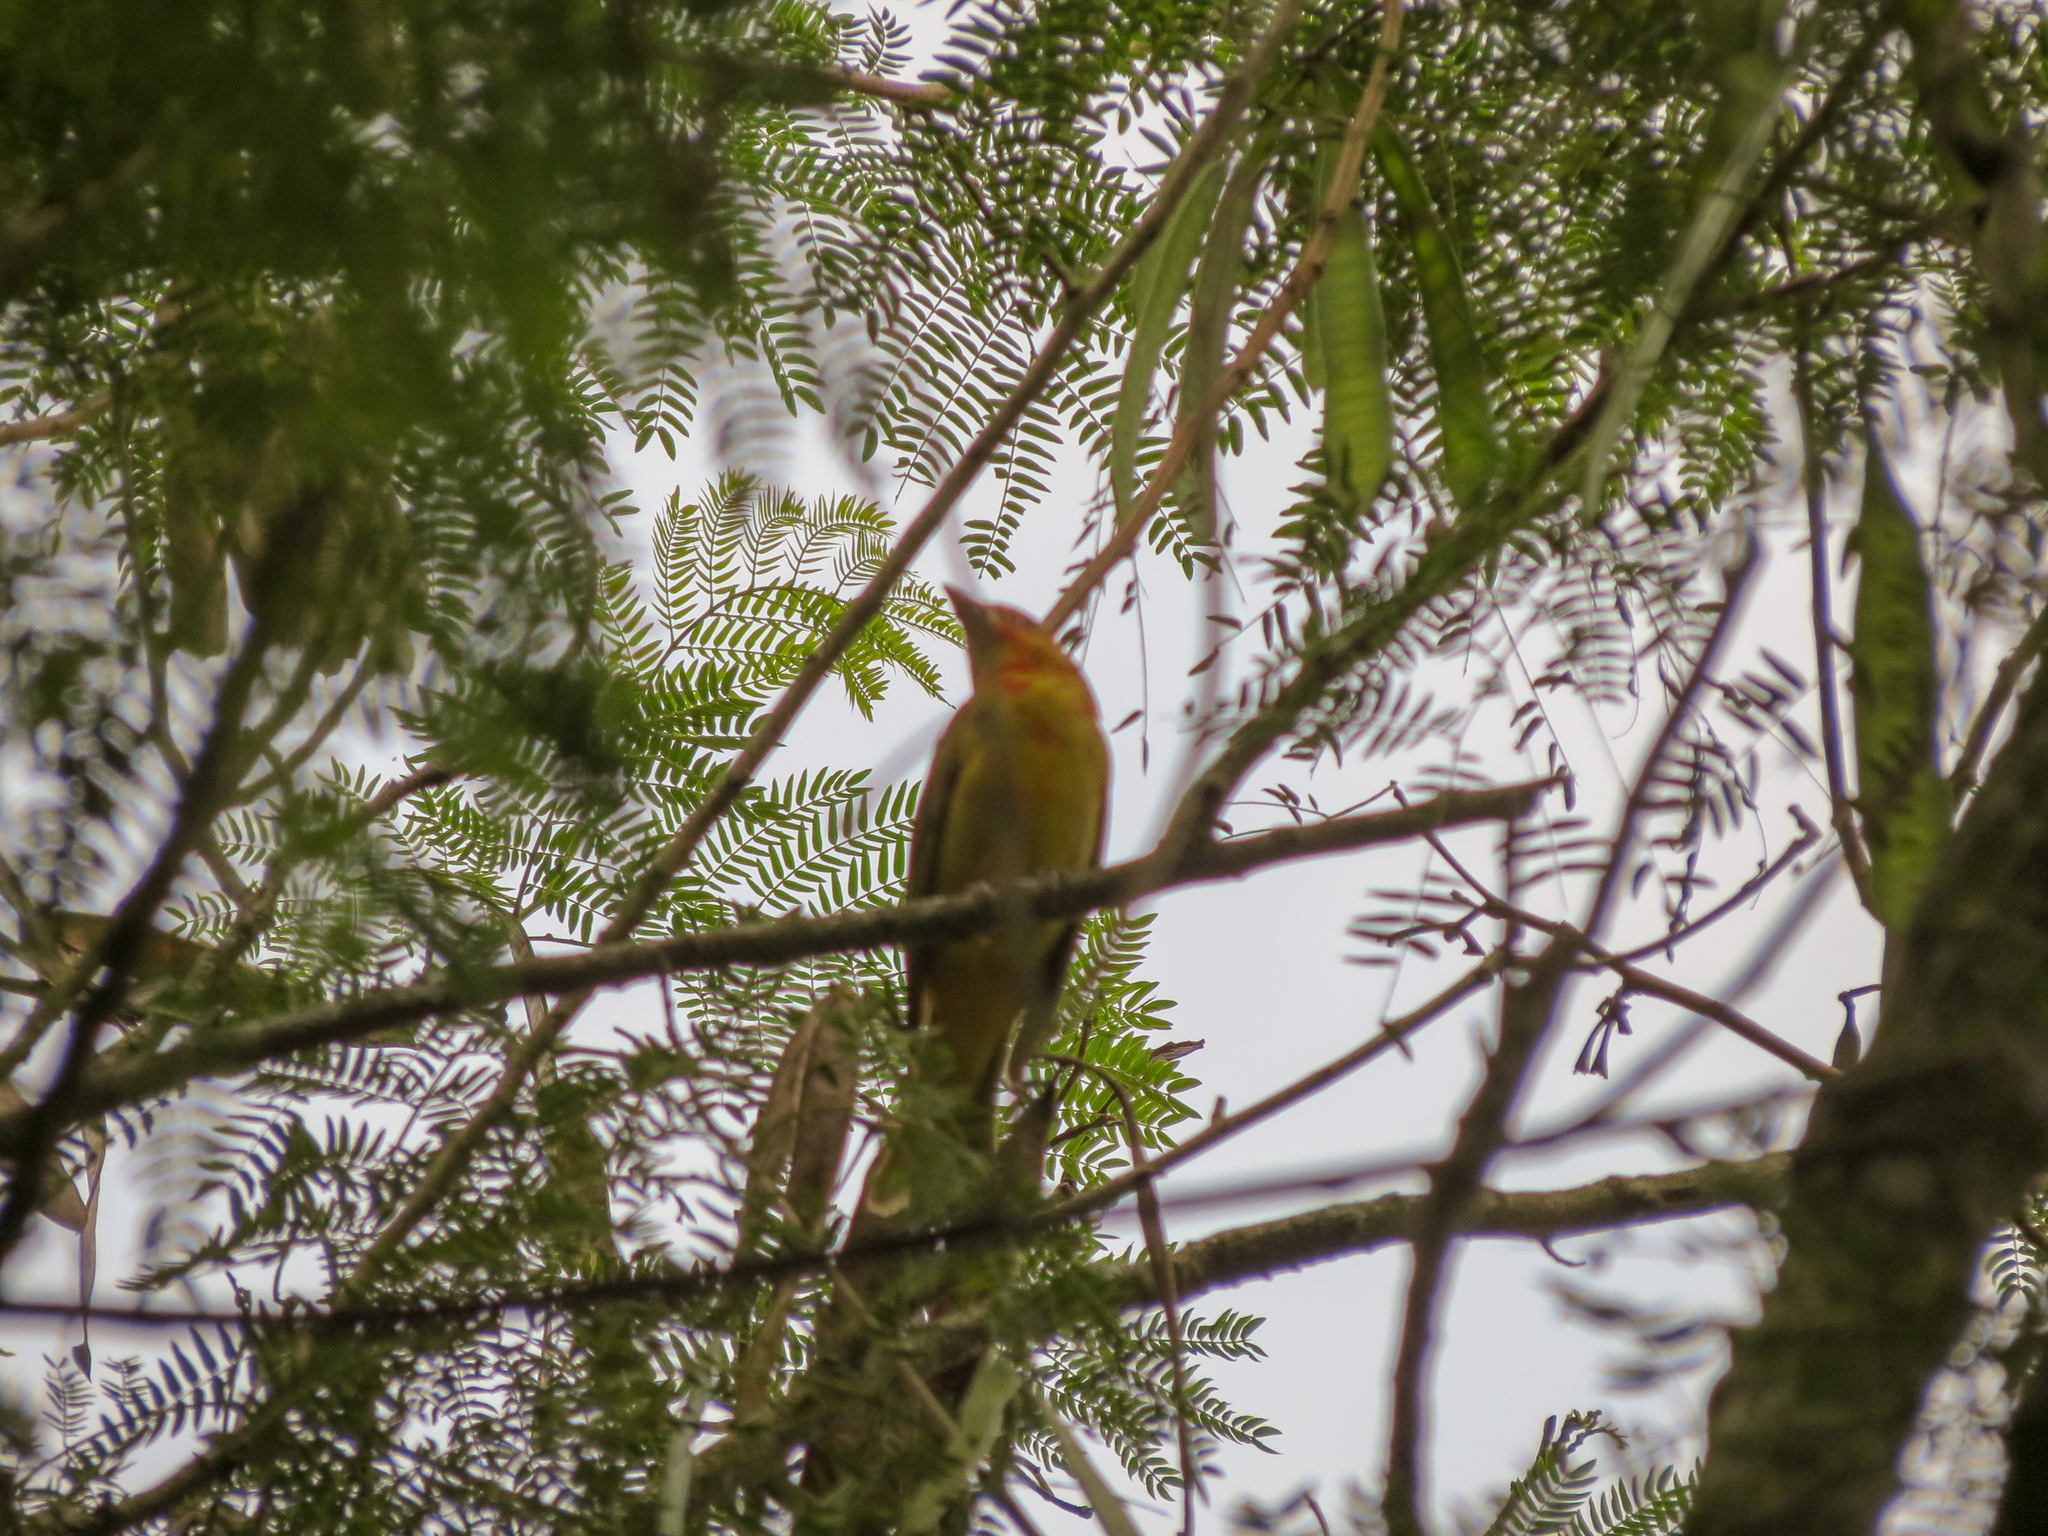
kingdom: Animalia
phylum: Chordata
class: Aves
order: Passeriformes
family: Cardinalidae
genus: Piranga
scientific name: Piranga rubra
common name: Summer tanager
